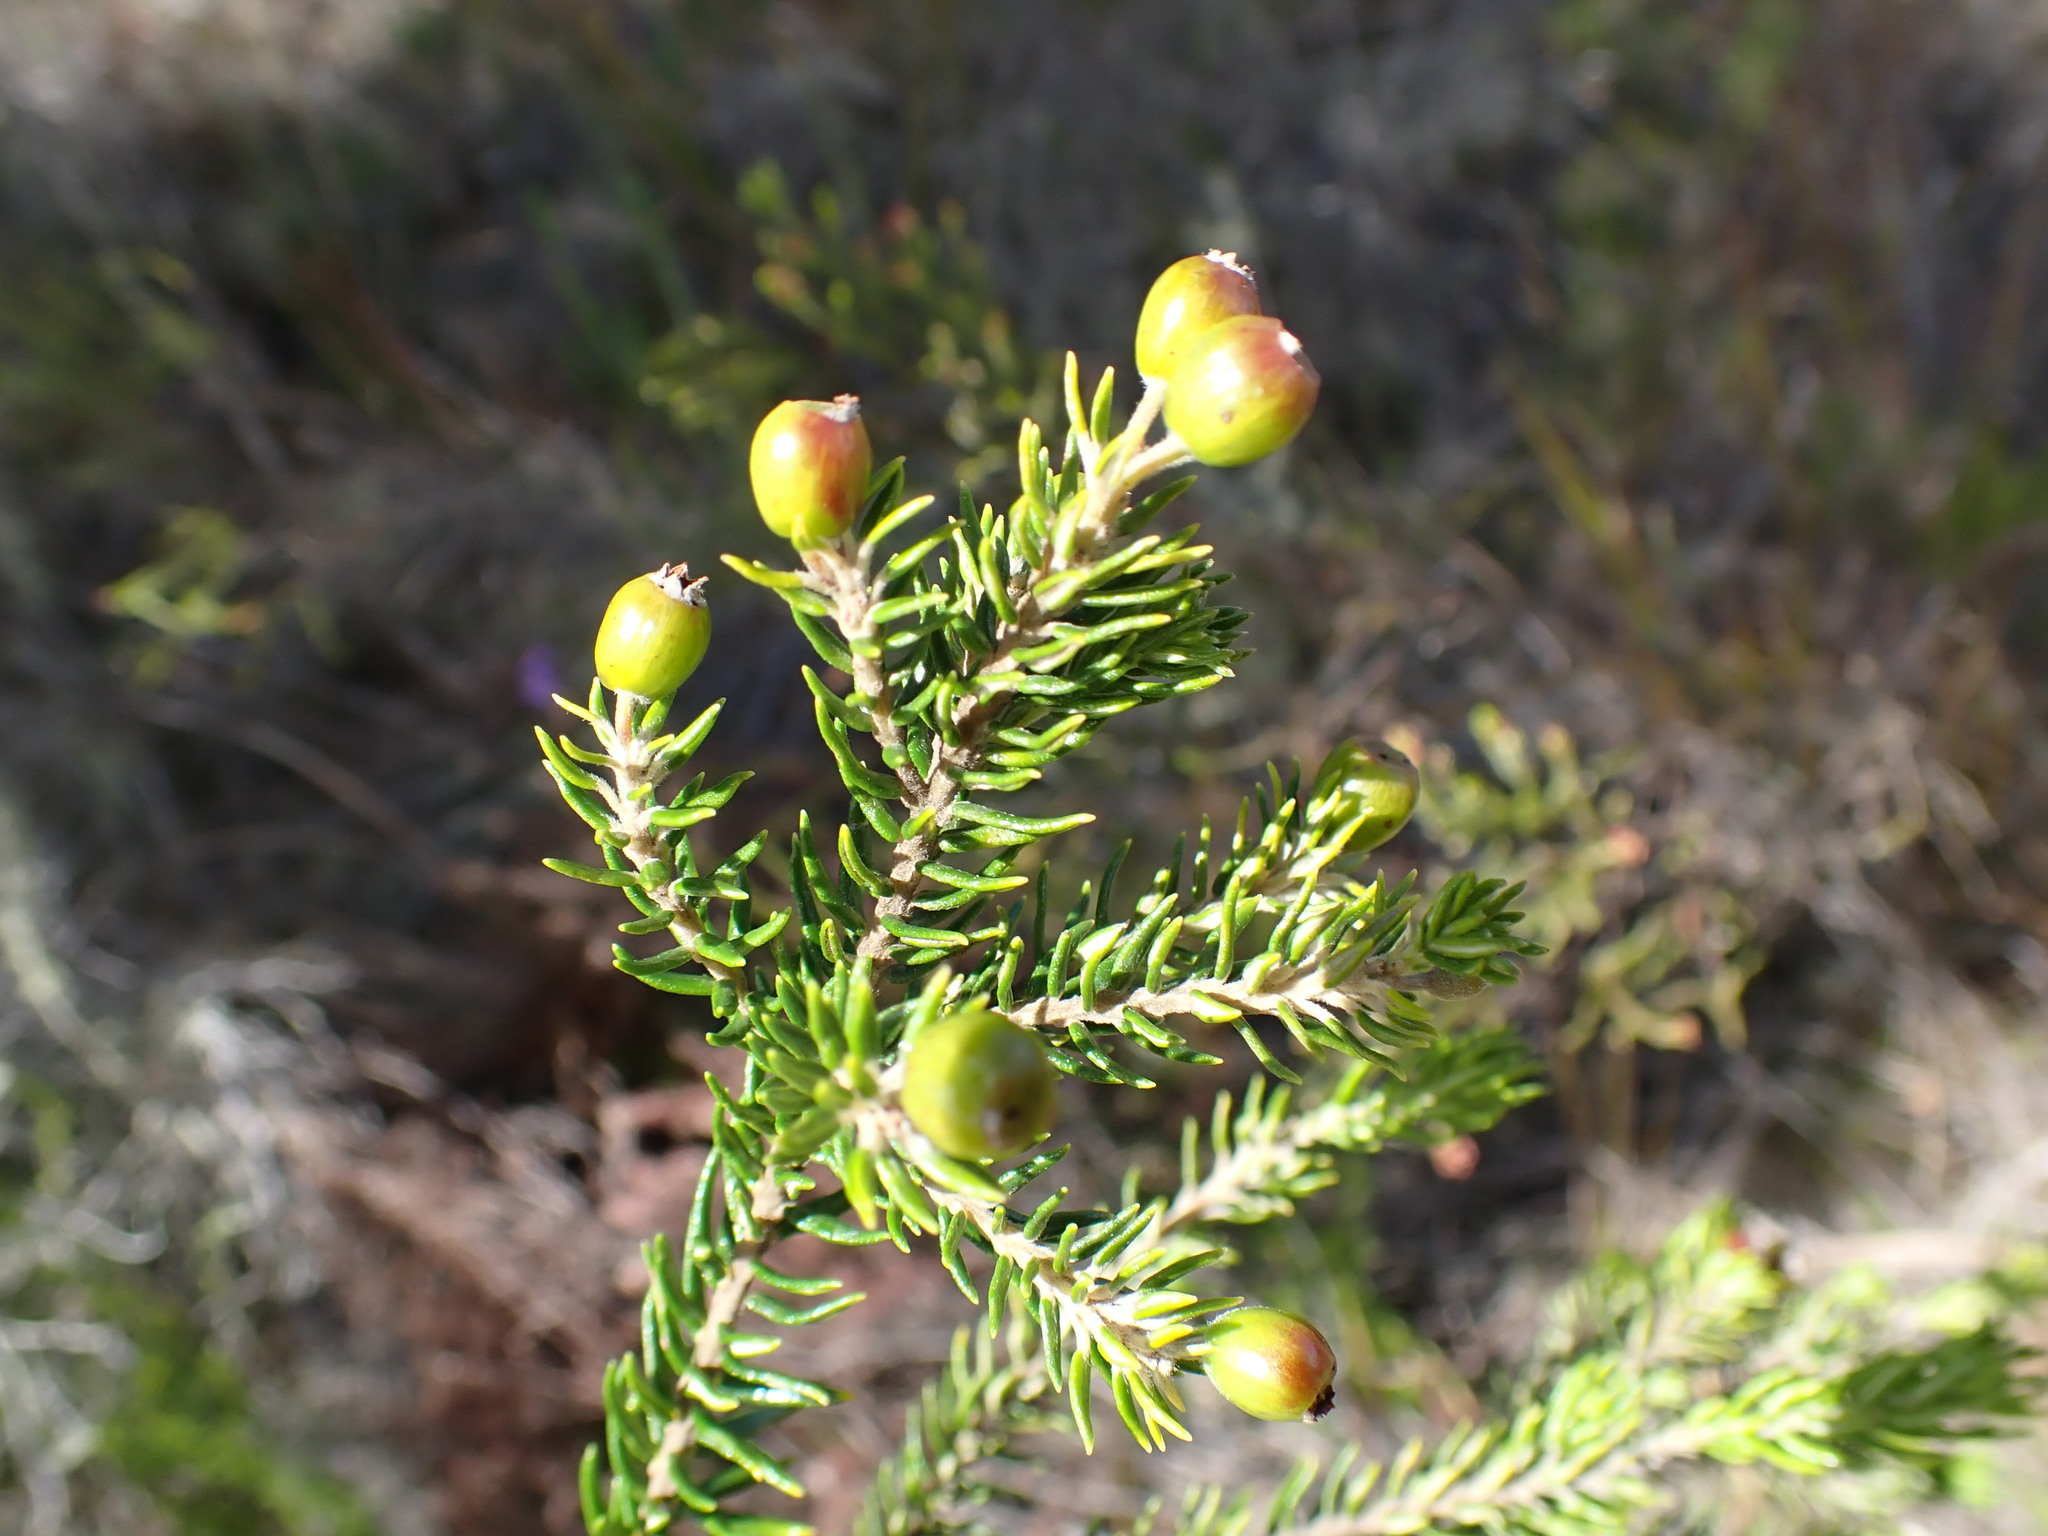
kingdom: Plantae
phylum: Tracheophyta
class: Magnoliopsida
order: Rosales
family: Rhamnaceae
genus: Phylica
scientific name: Phylica paniculata
